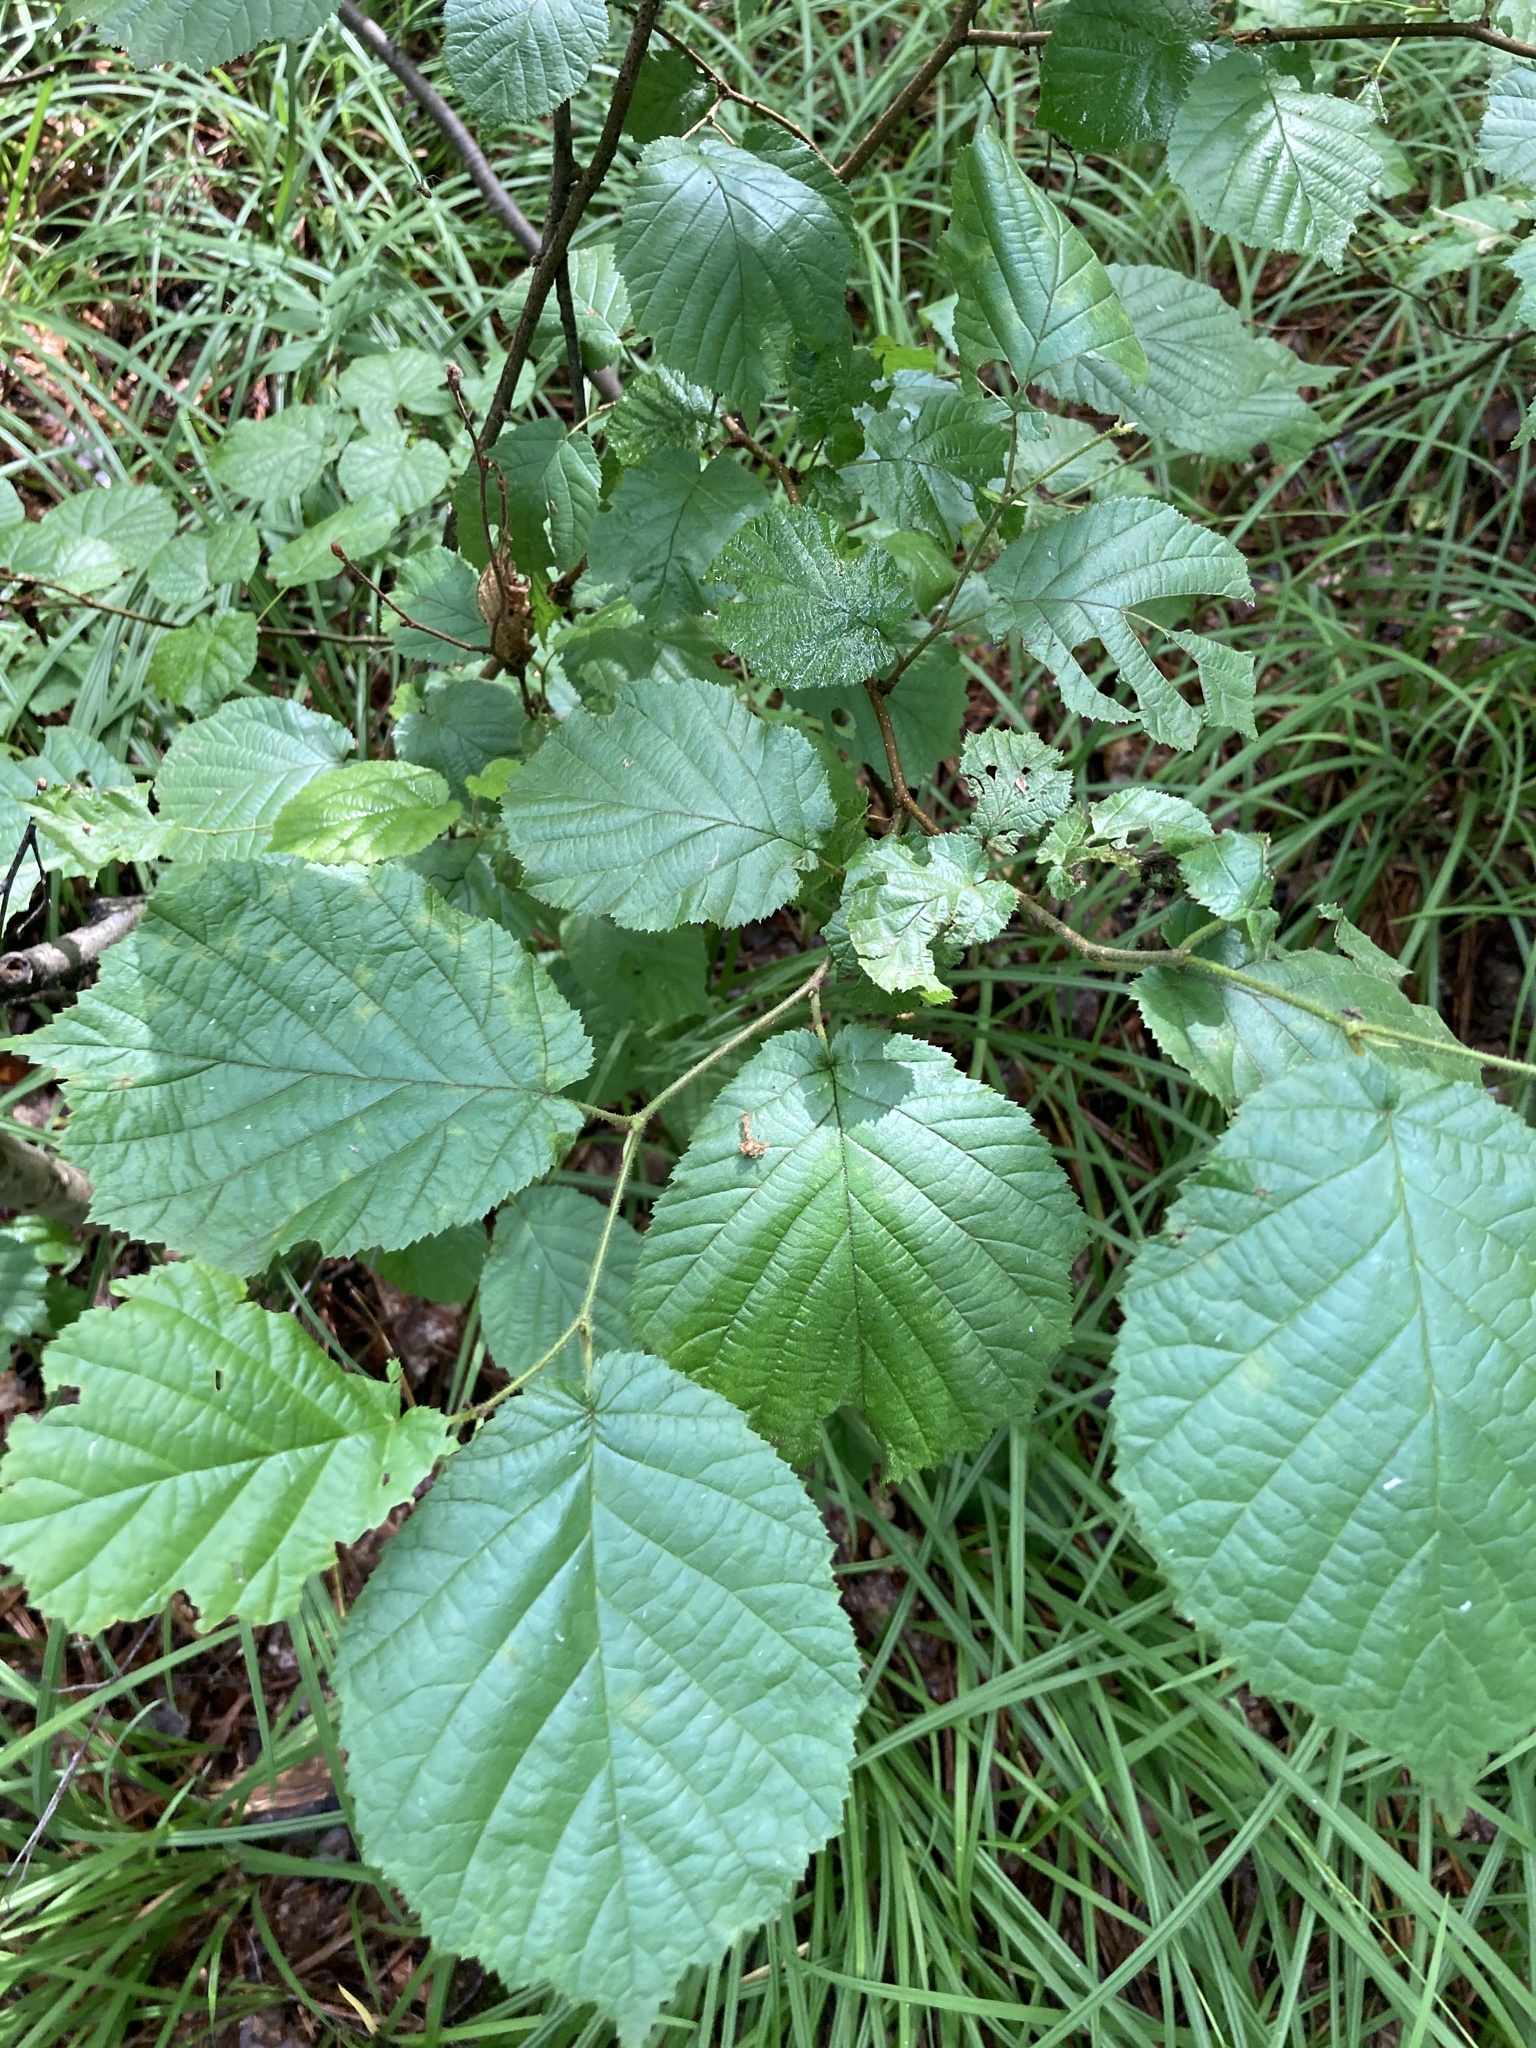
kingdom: Plantae
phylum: Tracheophyta
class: Magnoliopsida
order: Fagales
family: Betulaceae
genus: Corylus
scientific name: Corylus avellana
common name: European hazel
